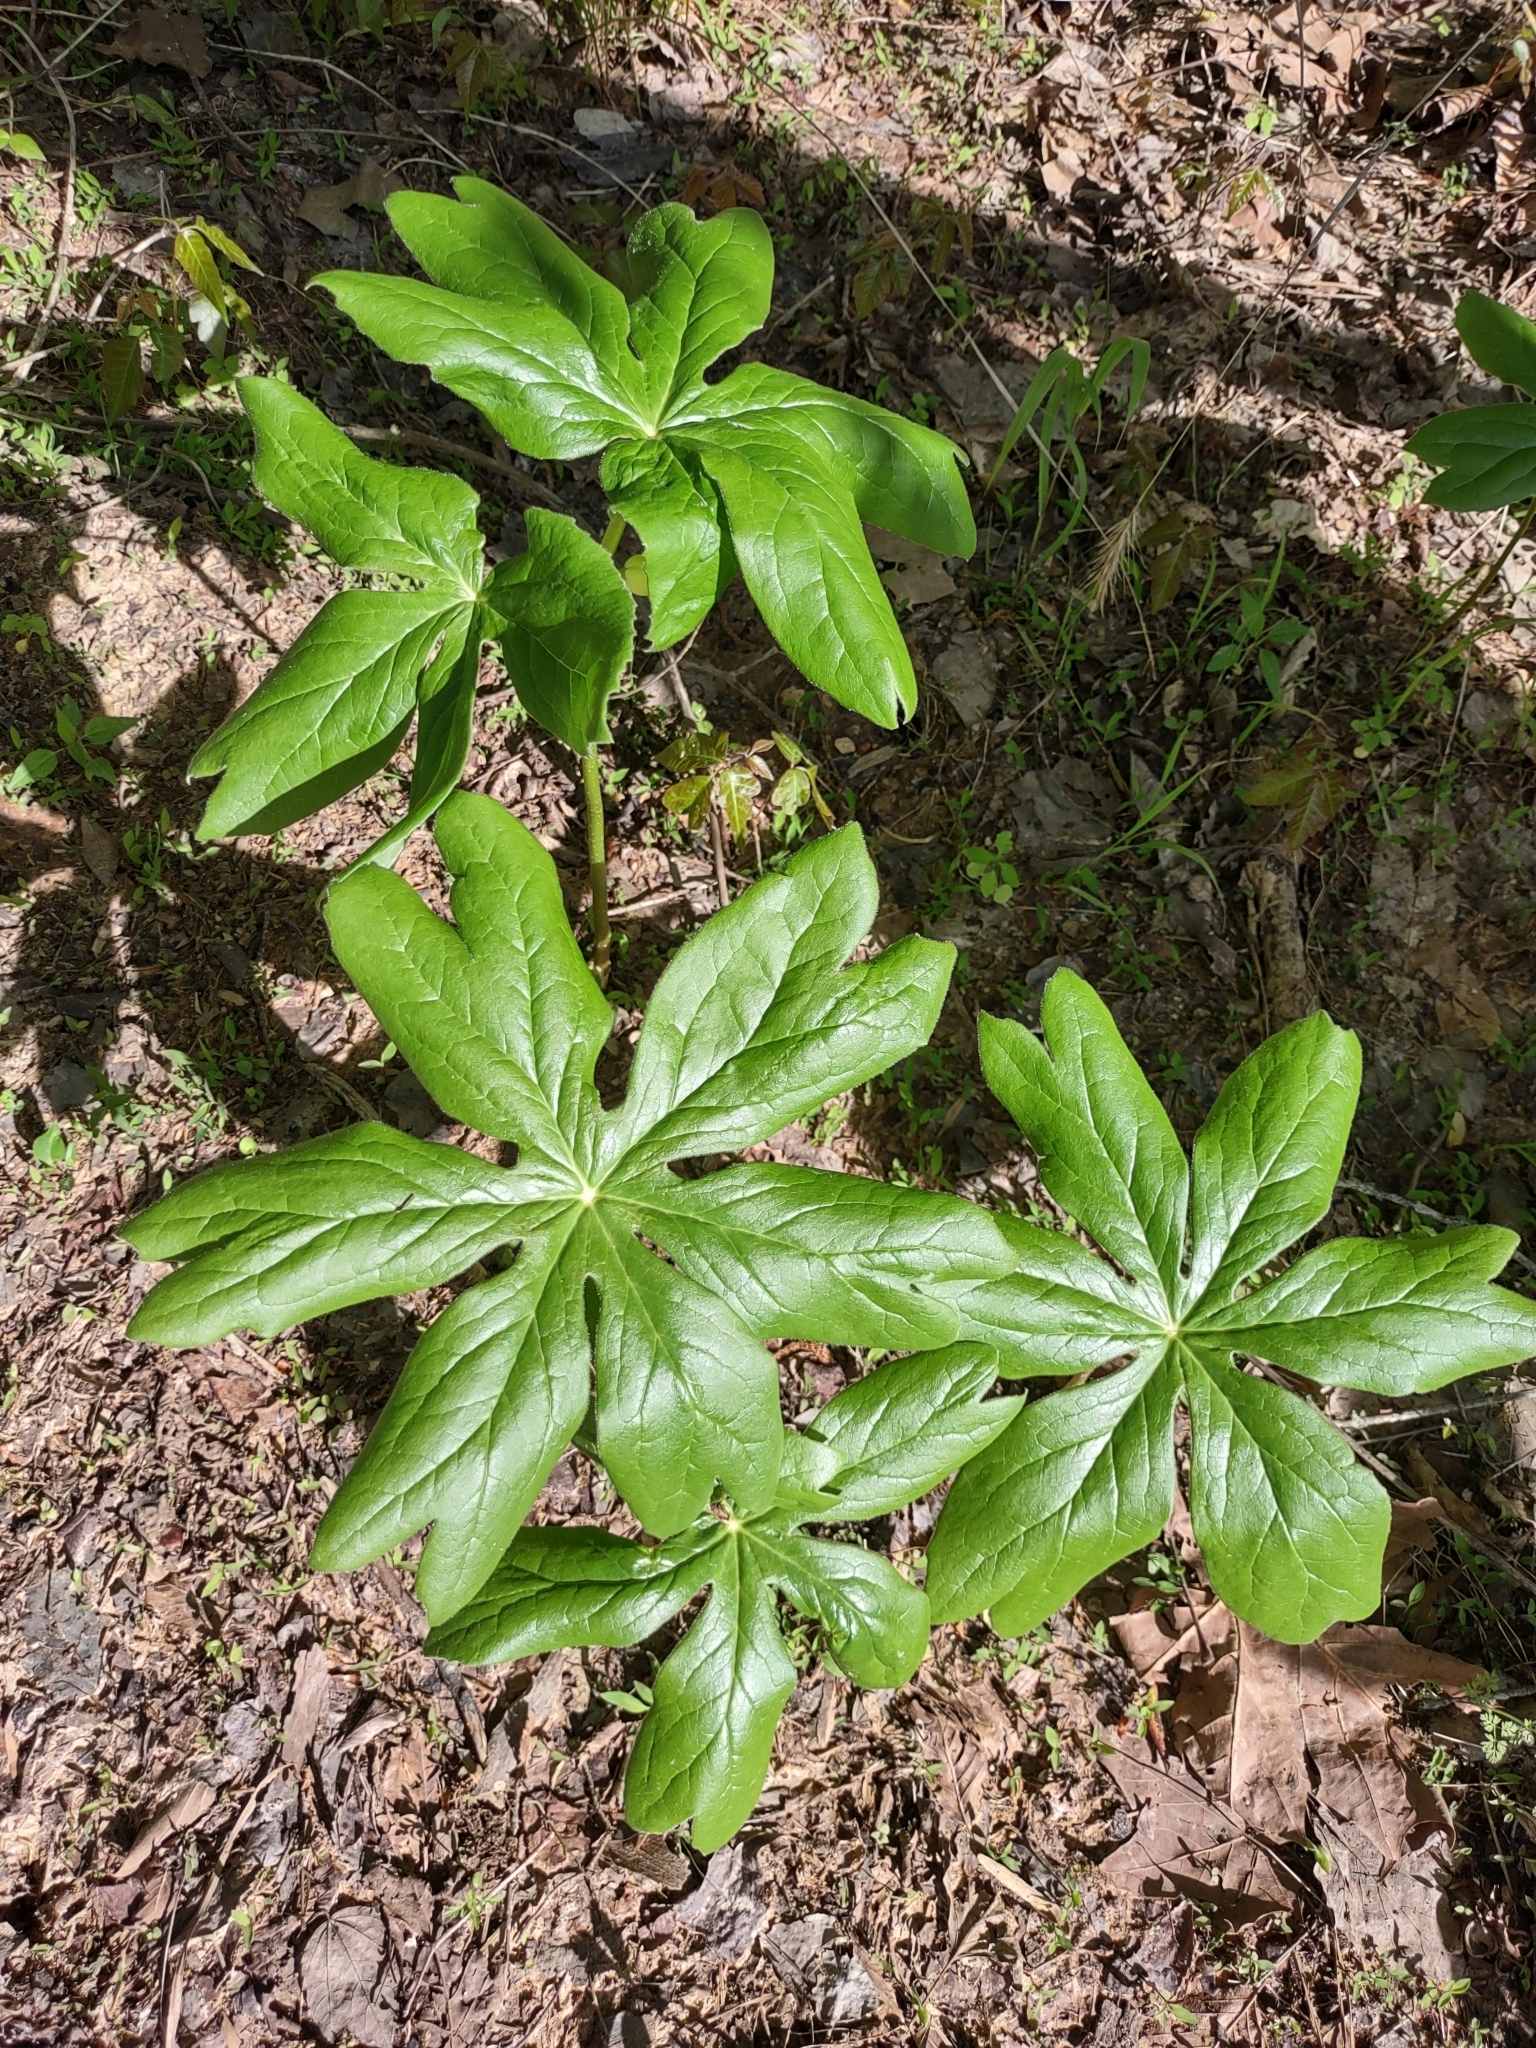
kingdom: Plantae
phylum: Tracheophyta
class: Magnoliopsida
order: Ranunculales
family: Berberidaceae
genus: Podophyllum
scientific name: Podophyllum peltatum
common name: Wild mandrake
